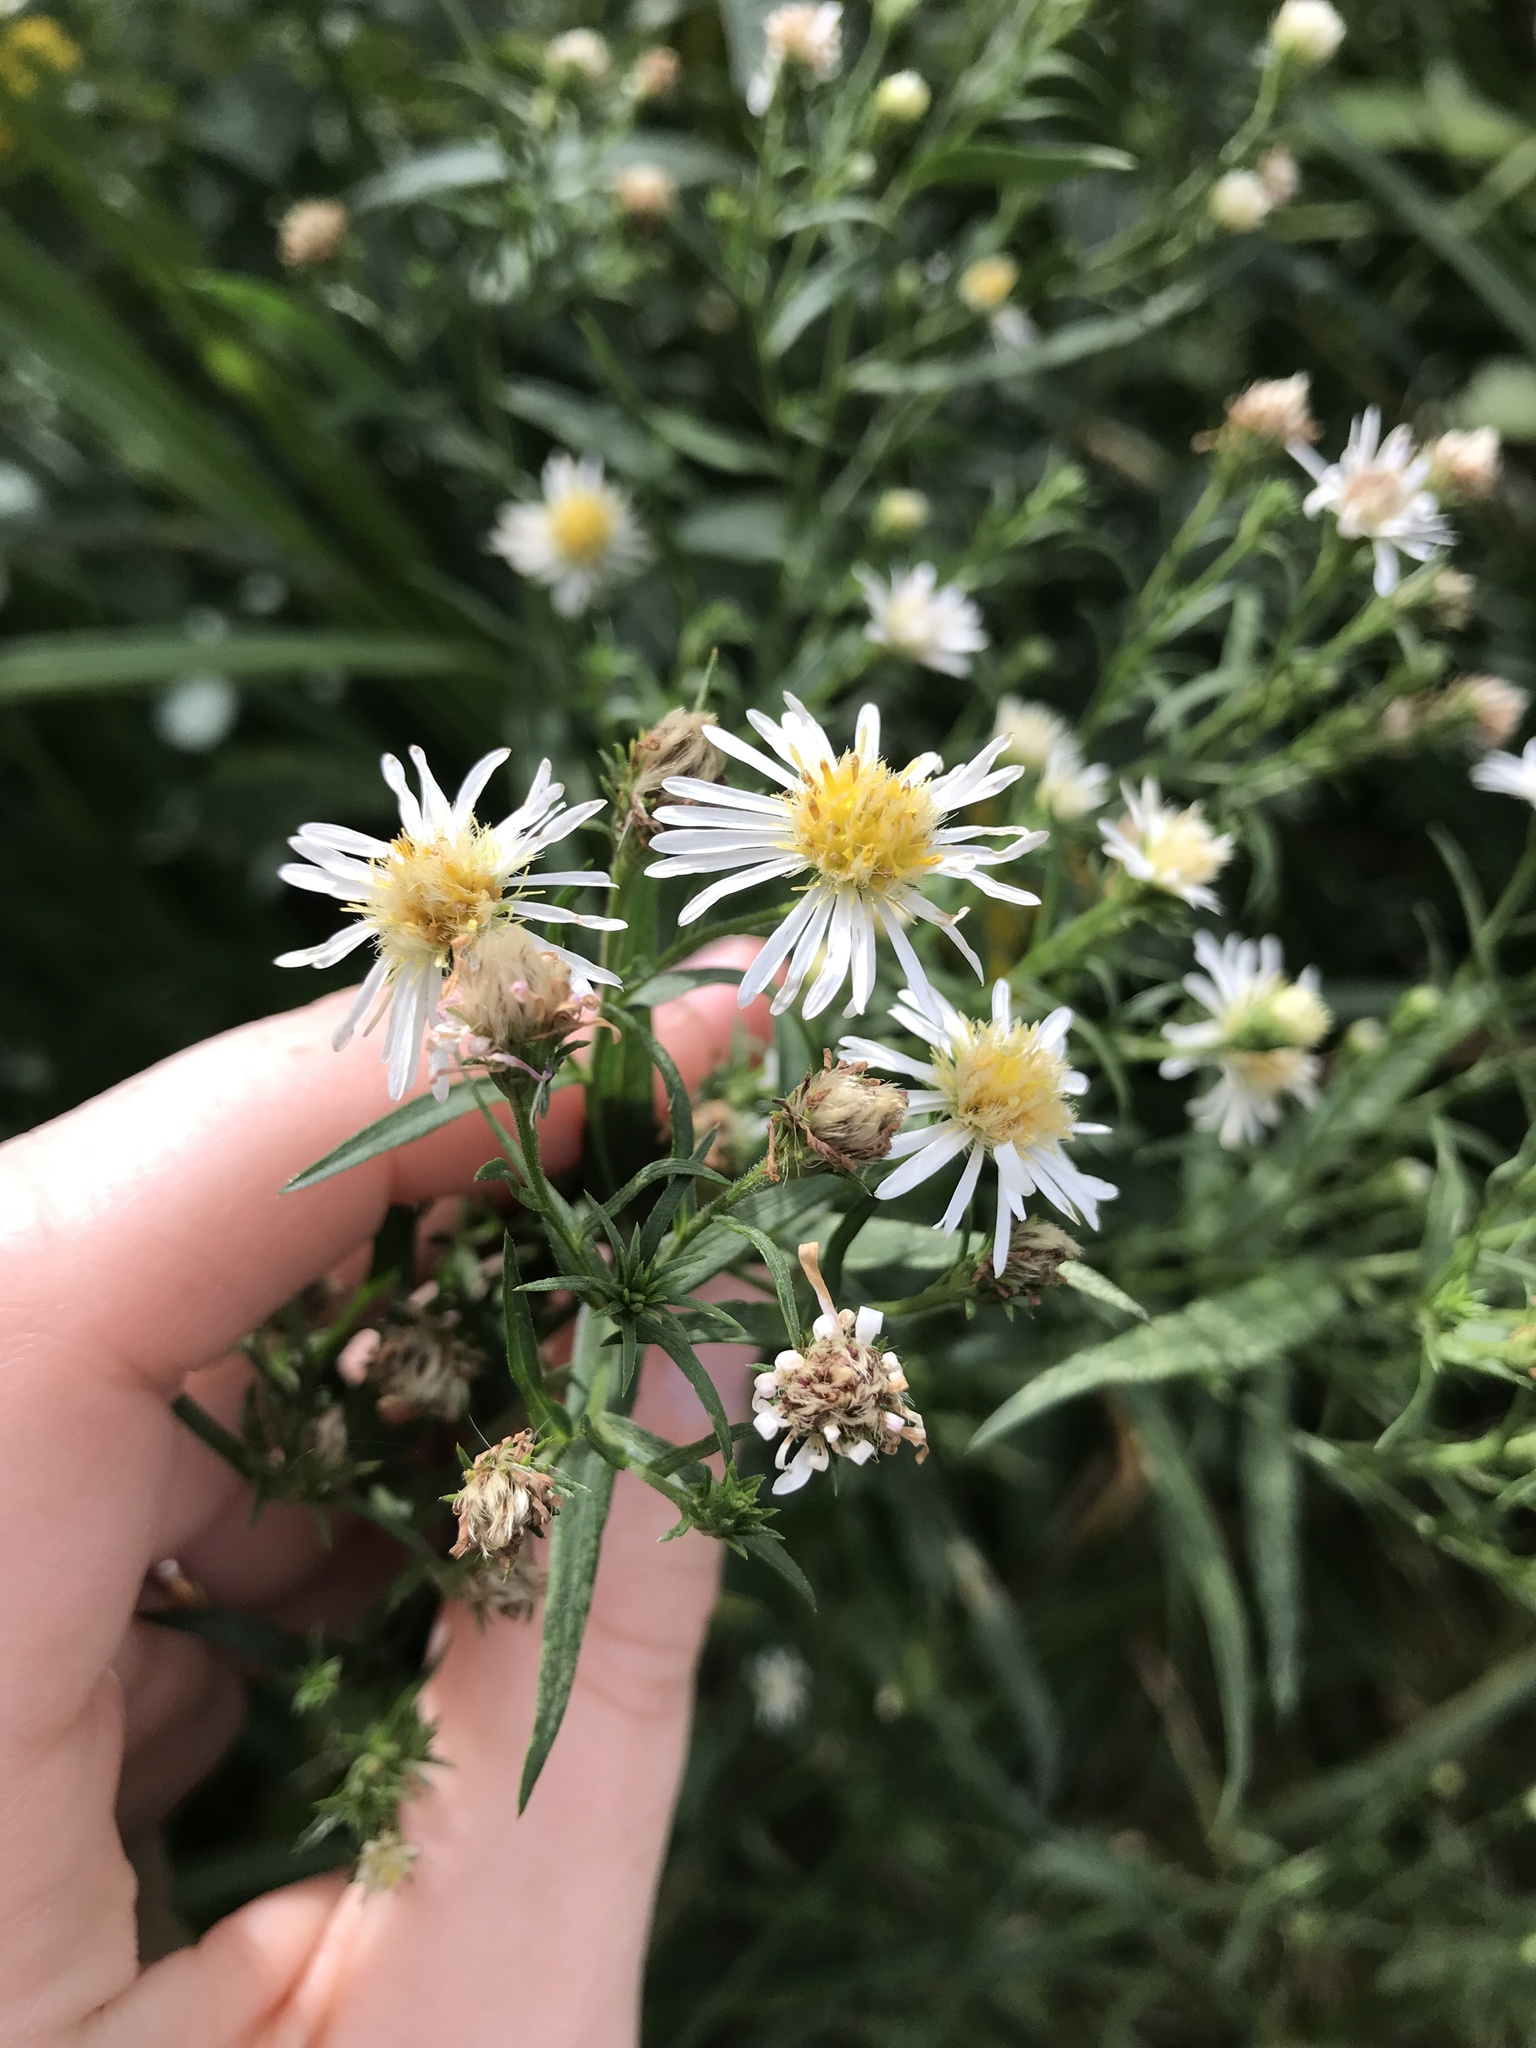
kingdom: Plantae
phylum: Tracheophyta
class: Magnoliopsida
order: Asterales
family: Asteraceae
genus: Symphyotrichum
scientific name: Symphyotrichum lanceolatum
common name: Panicled aster
